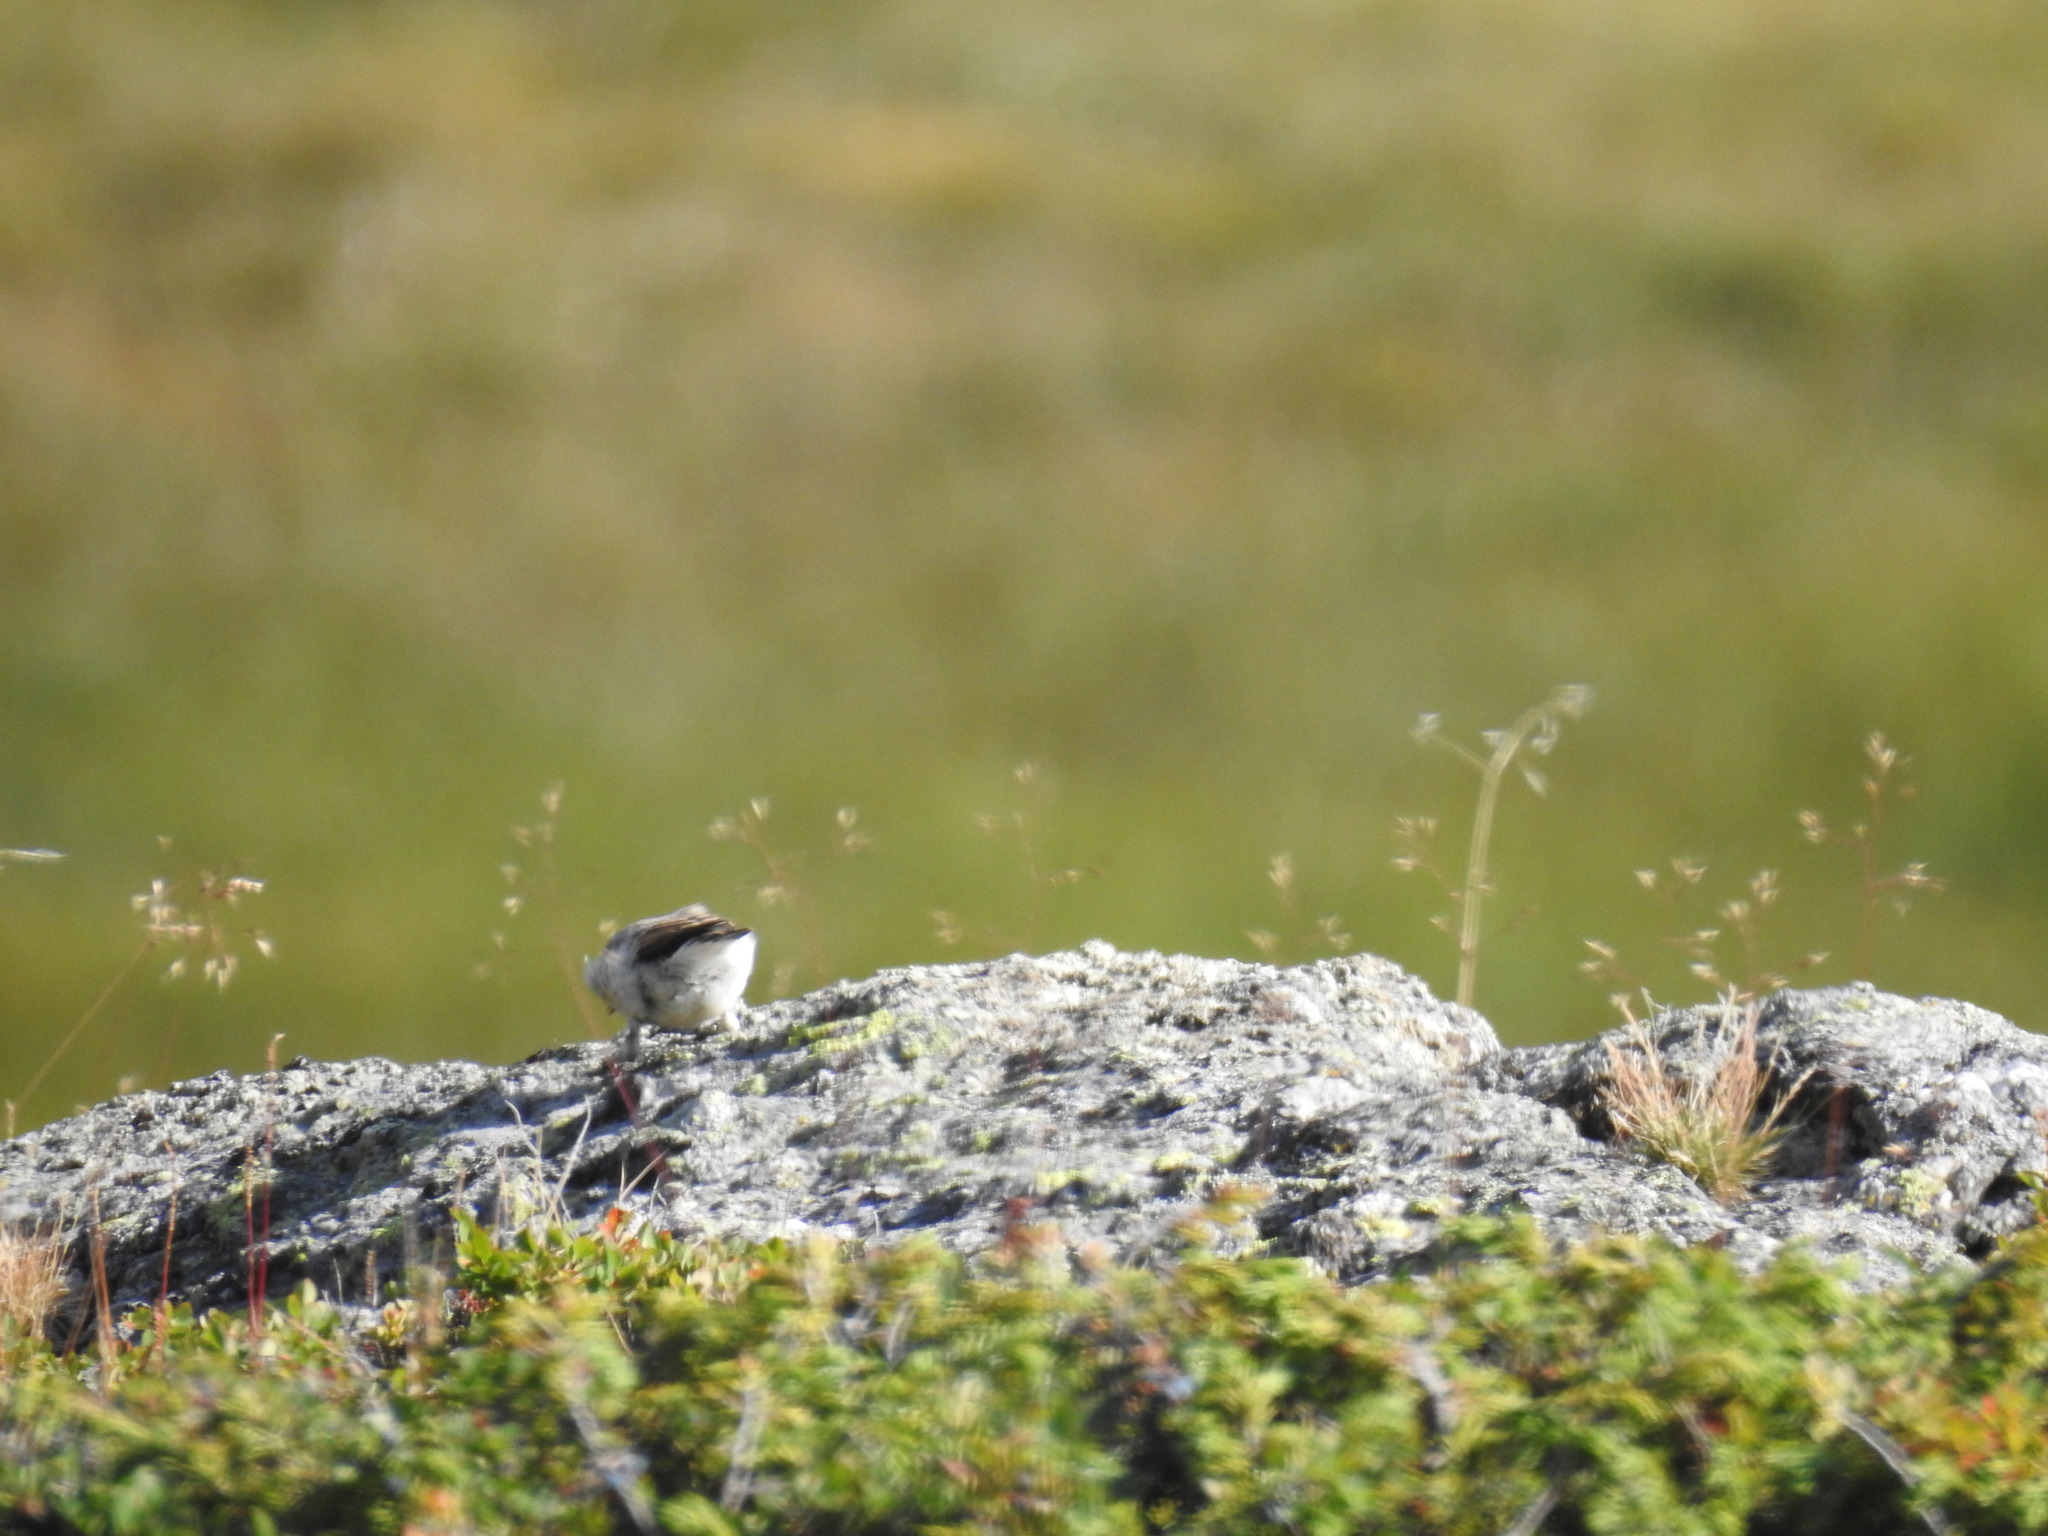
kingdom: Animalia
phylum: Chordata
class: Aves
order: Passeriformes
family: Muscicapidae
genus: Oenanthe
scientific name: Oenanthe oenanthe
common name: Northern wheatear
